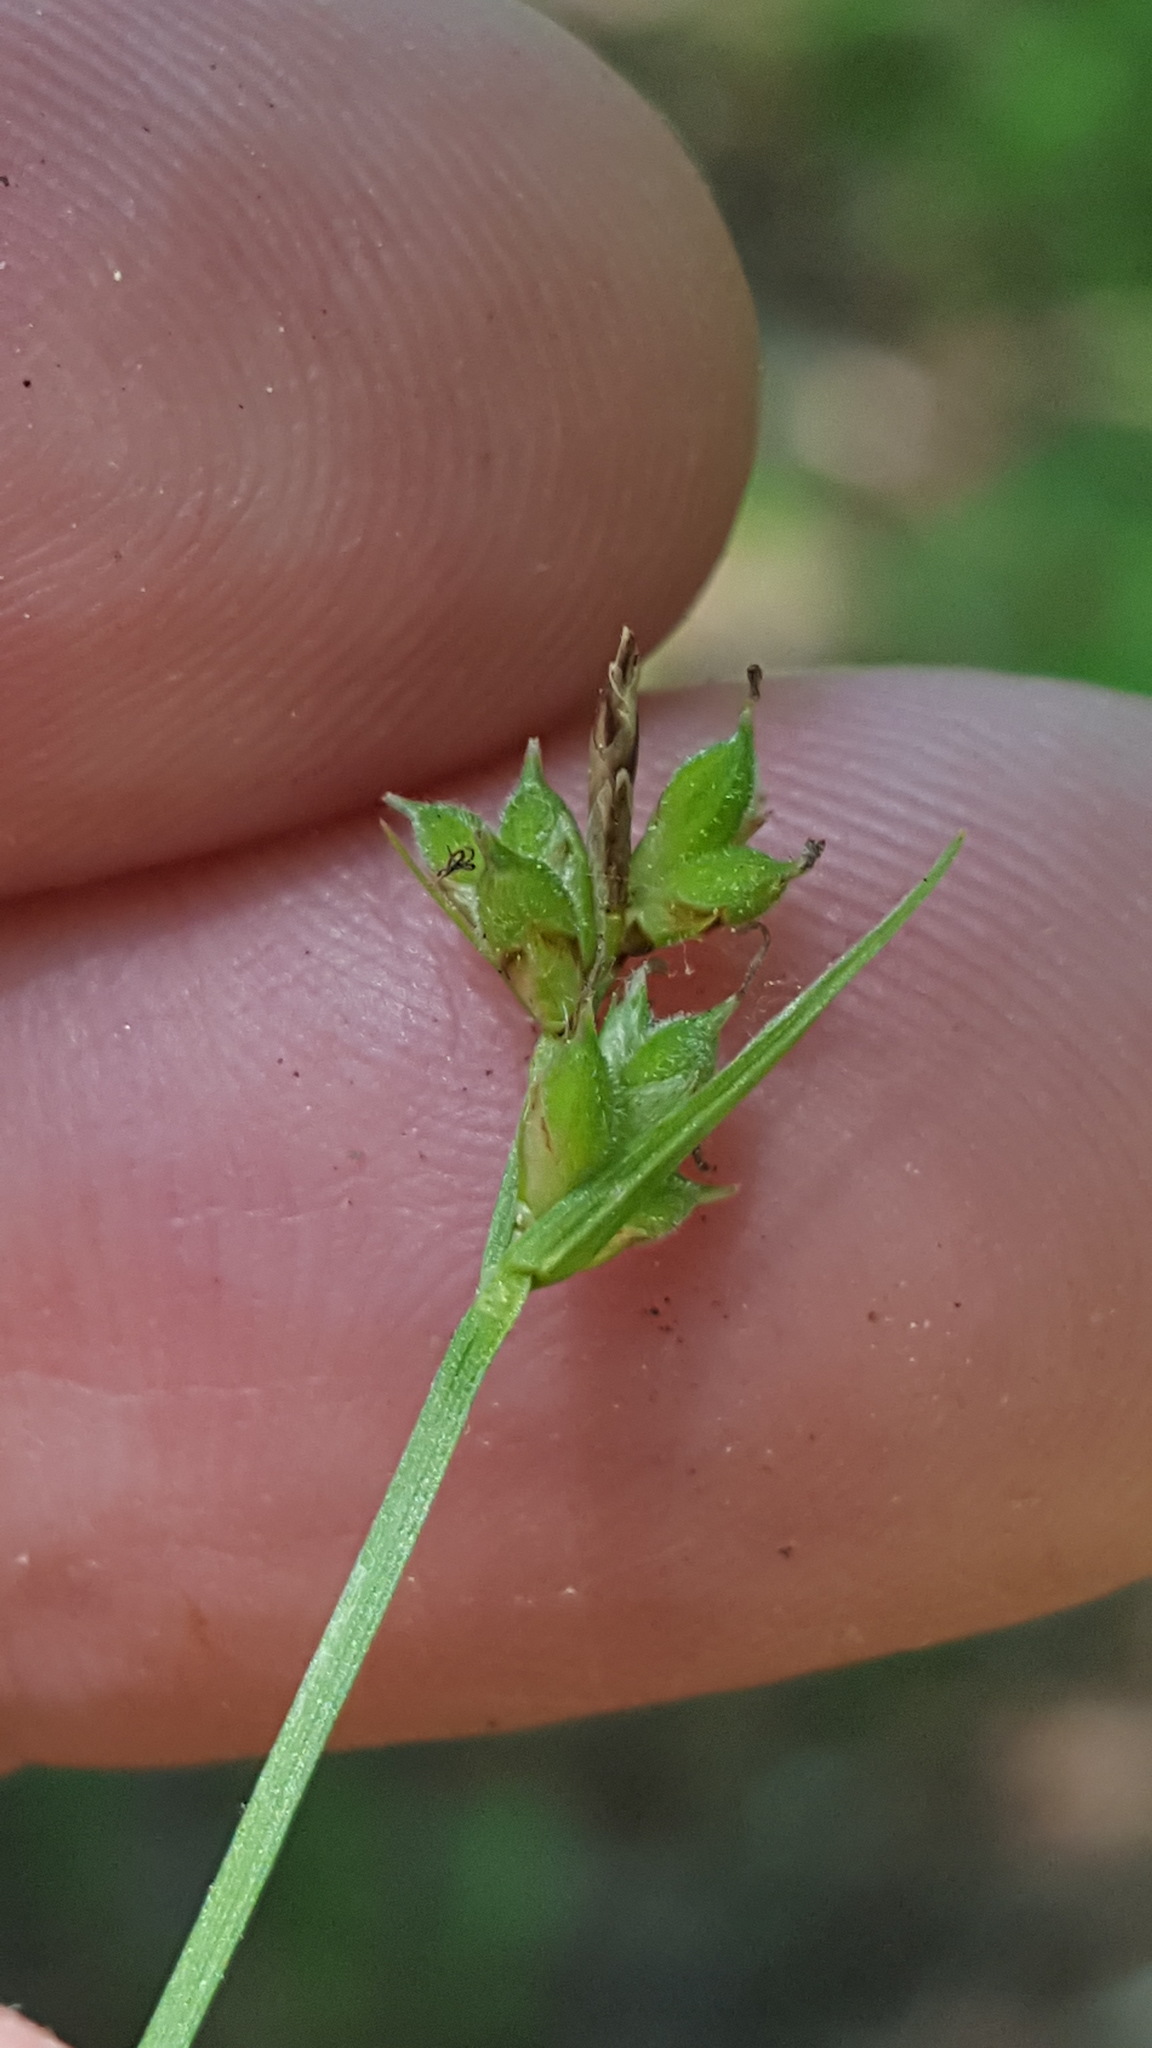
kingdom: Plantae
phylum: Tracheophyta
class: Liliopsida
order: Poales
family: Cyperaceae
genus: Carex
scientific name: Carex peckii
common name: Peck's oak sedge
